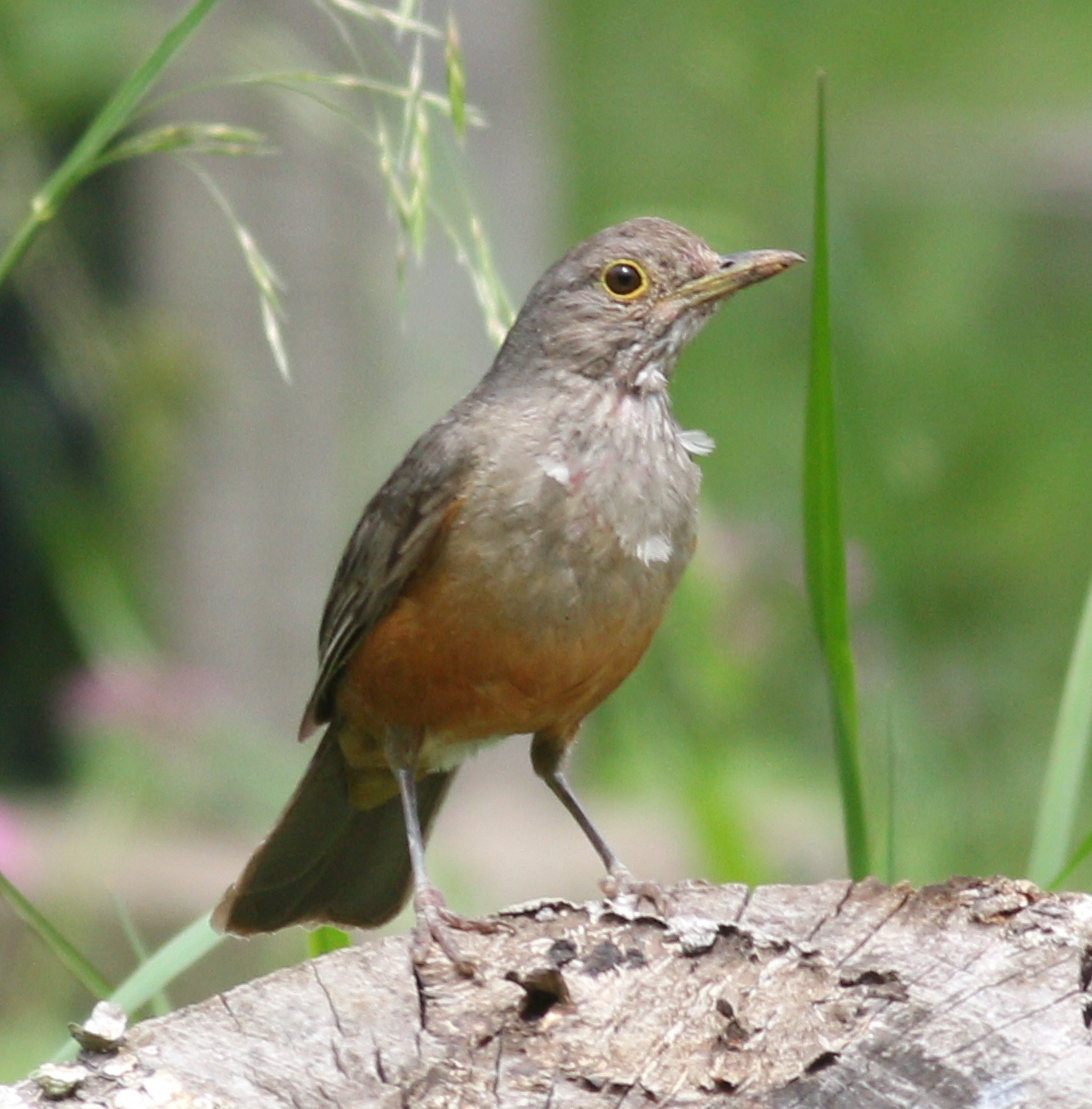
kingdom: Animalia
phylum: Chordata
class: Aves
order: Passeriformes
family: Turdidae
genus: Turdus
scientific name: Turdus rufiventris
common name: Rufous-bellied thrush
